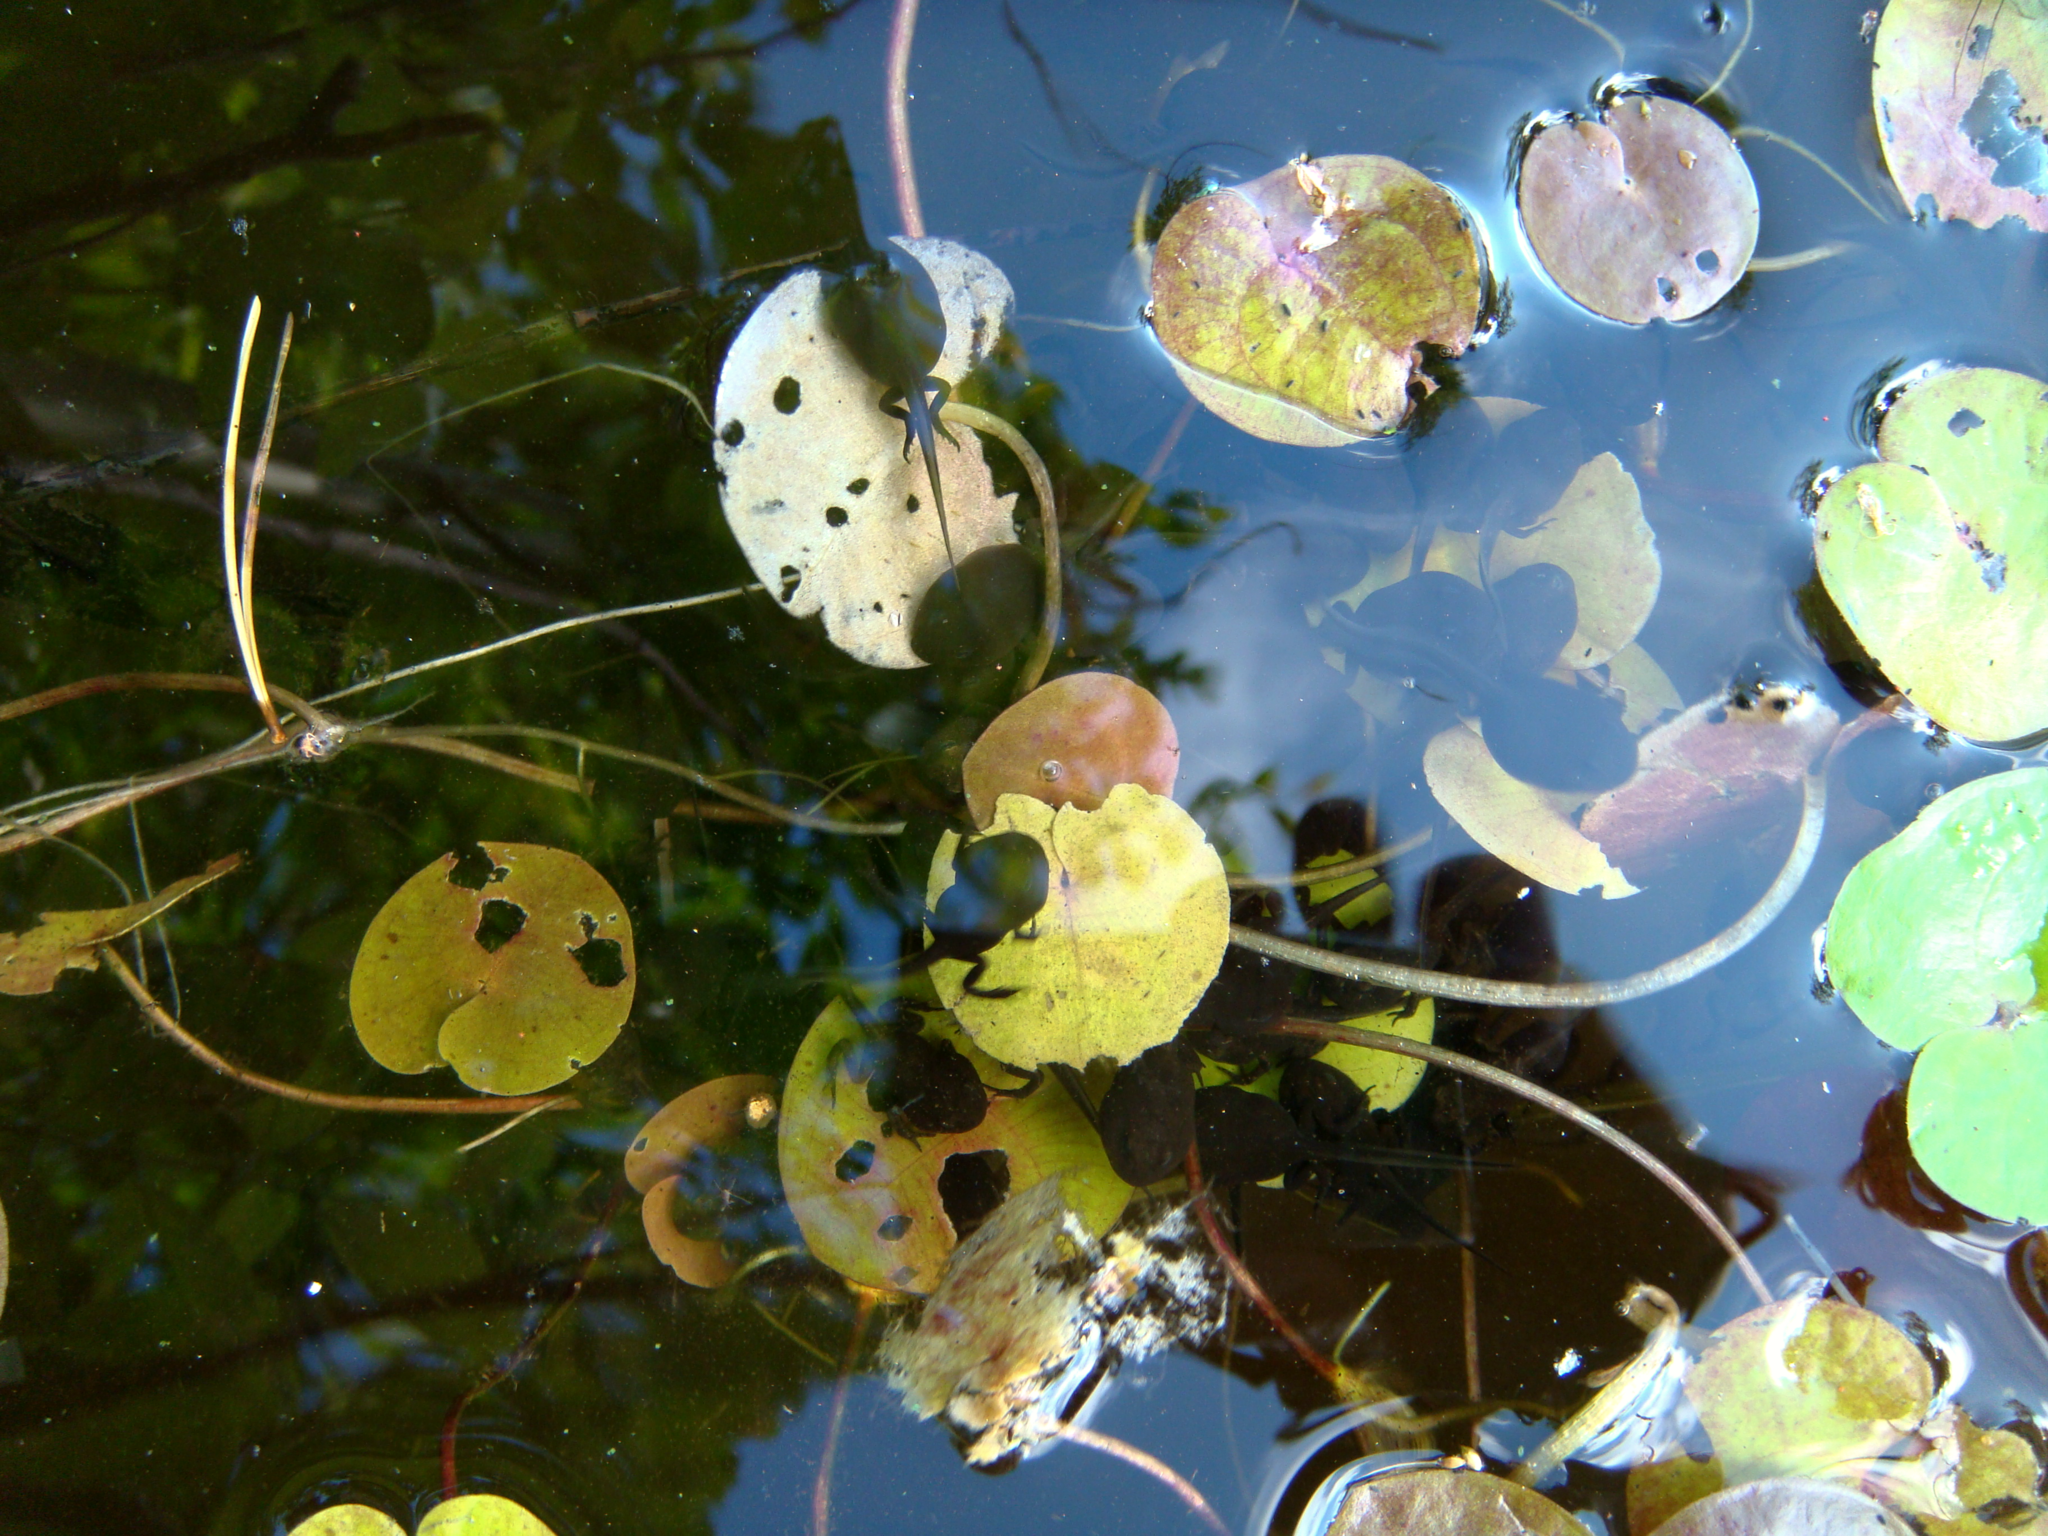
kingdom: Plantae
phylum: Tracheophyta
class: Liliopsida
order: Alismatales
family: Hydrocharitaceae
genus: Hydrocharis
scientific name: Hydrocharis morsus-ranae
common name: Frogbit
